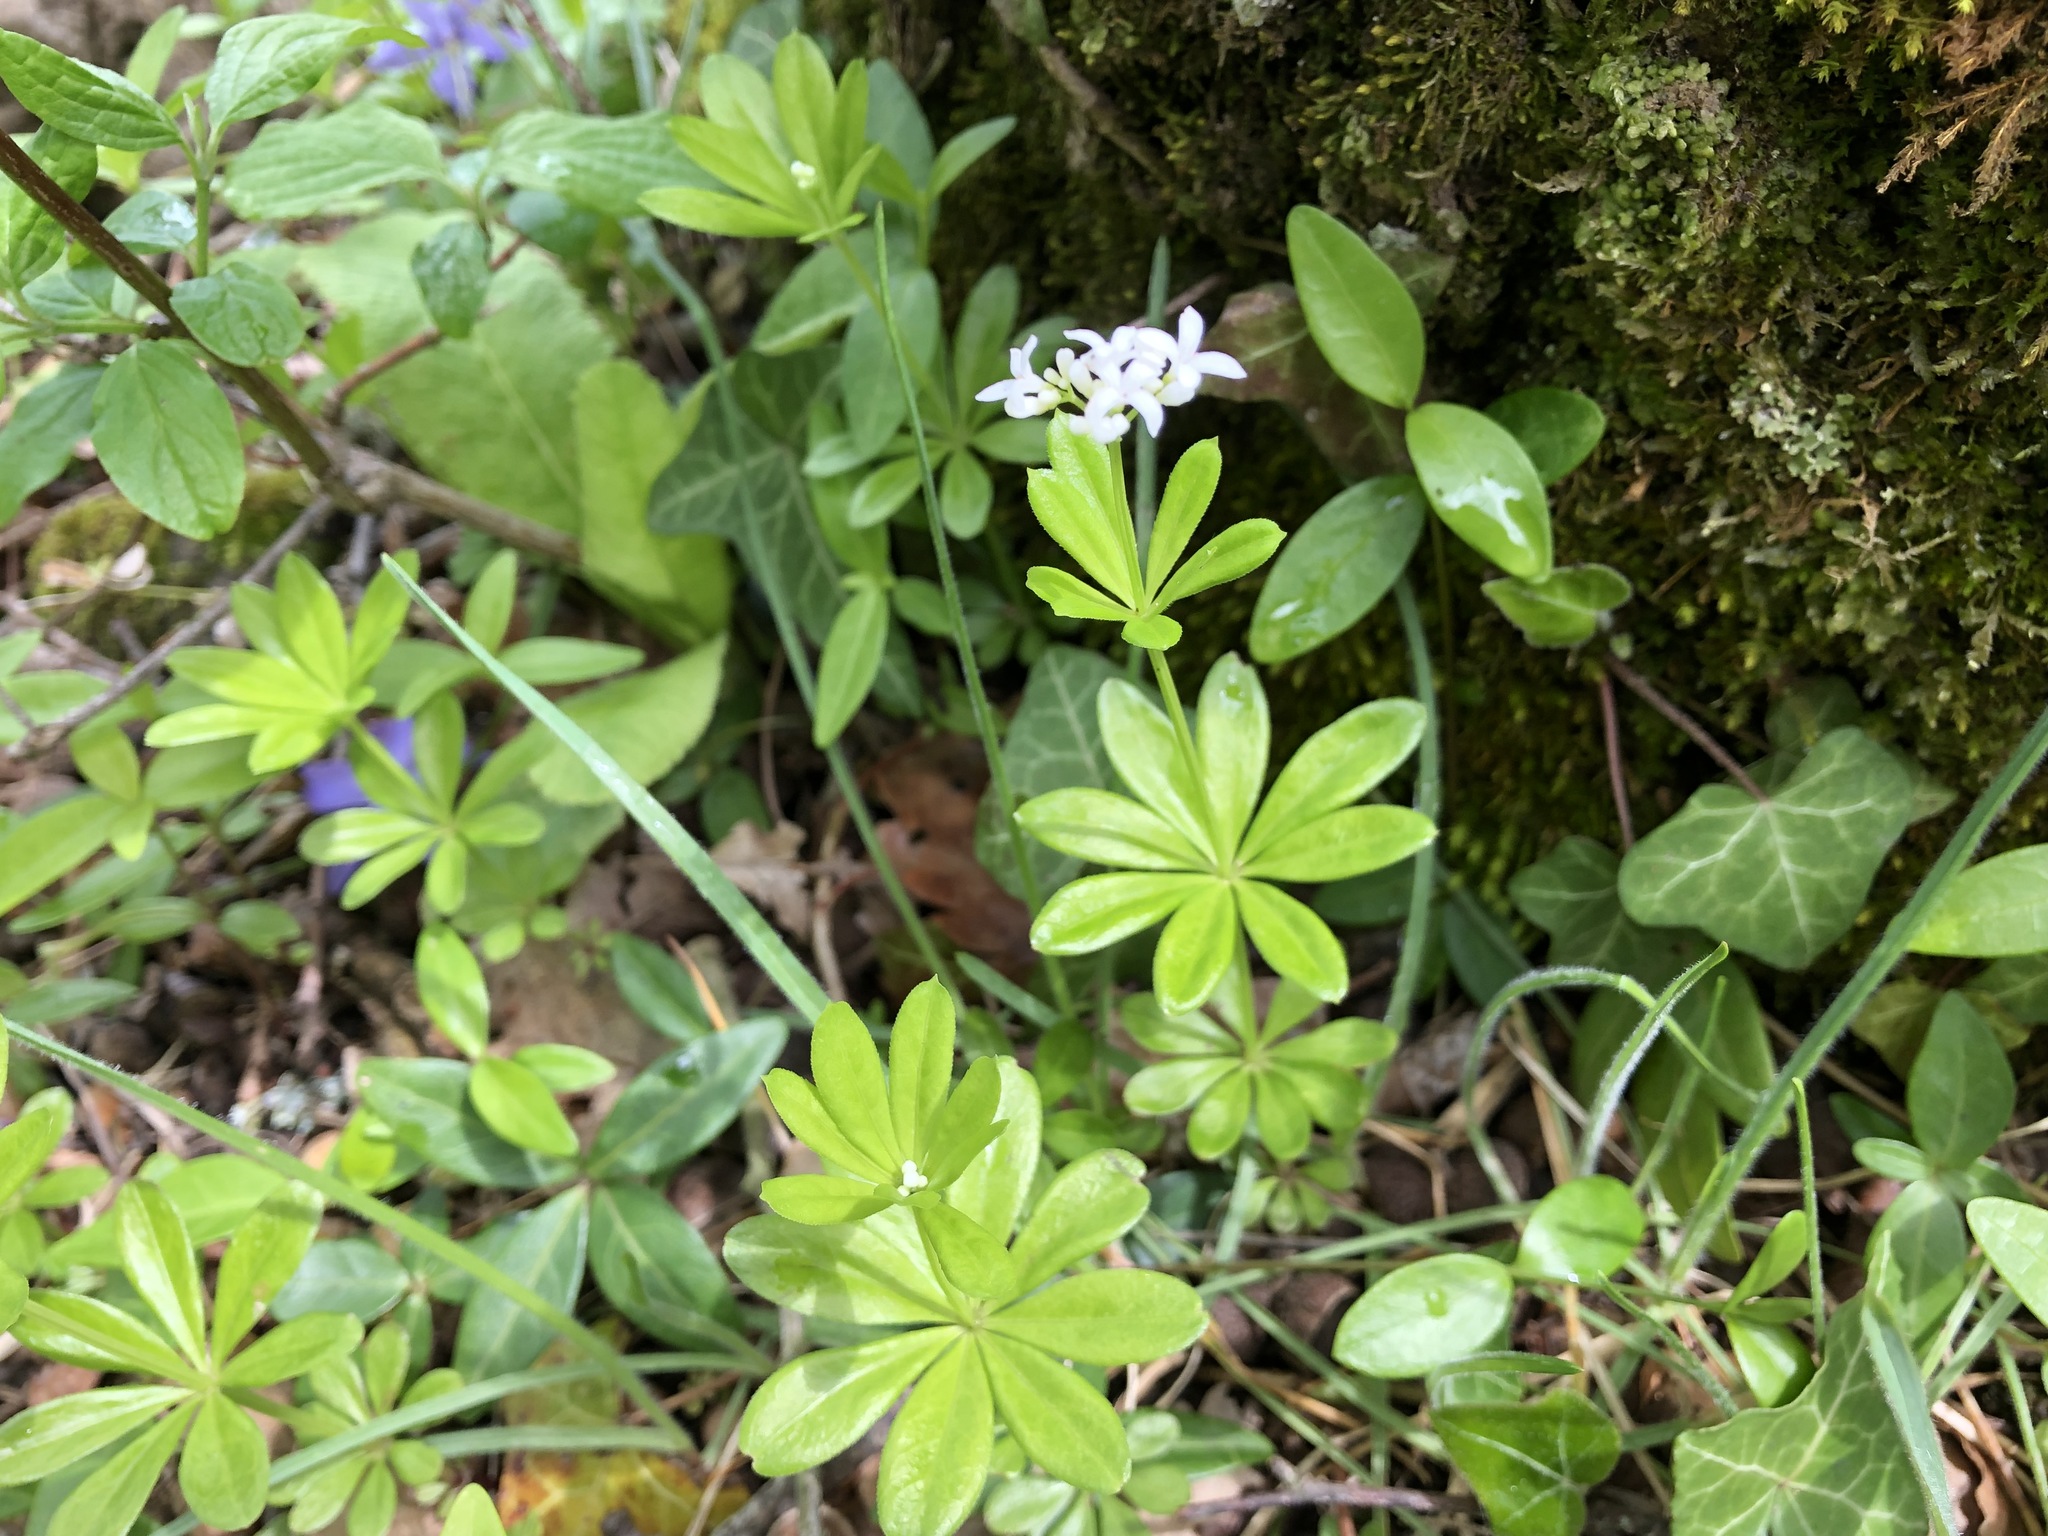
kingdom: Plantae
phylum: Tracheophyta
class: Magnoliopsida
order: Gentianales
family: Rubiaceae
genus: Galium
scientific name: Galium odoratum
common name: Sweet woodruff
